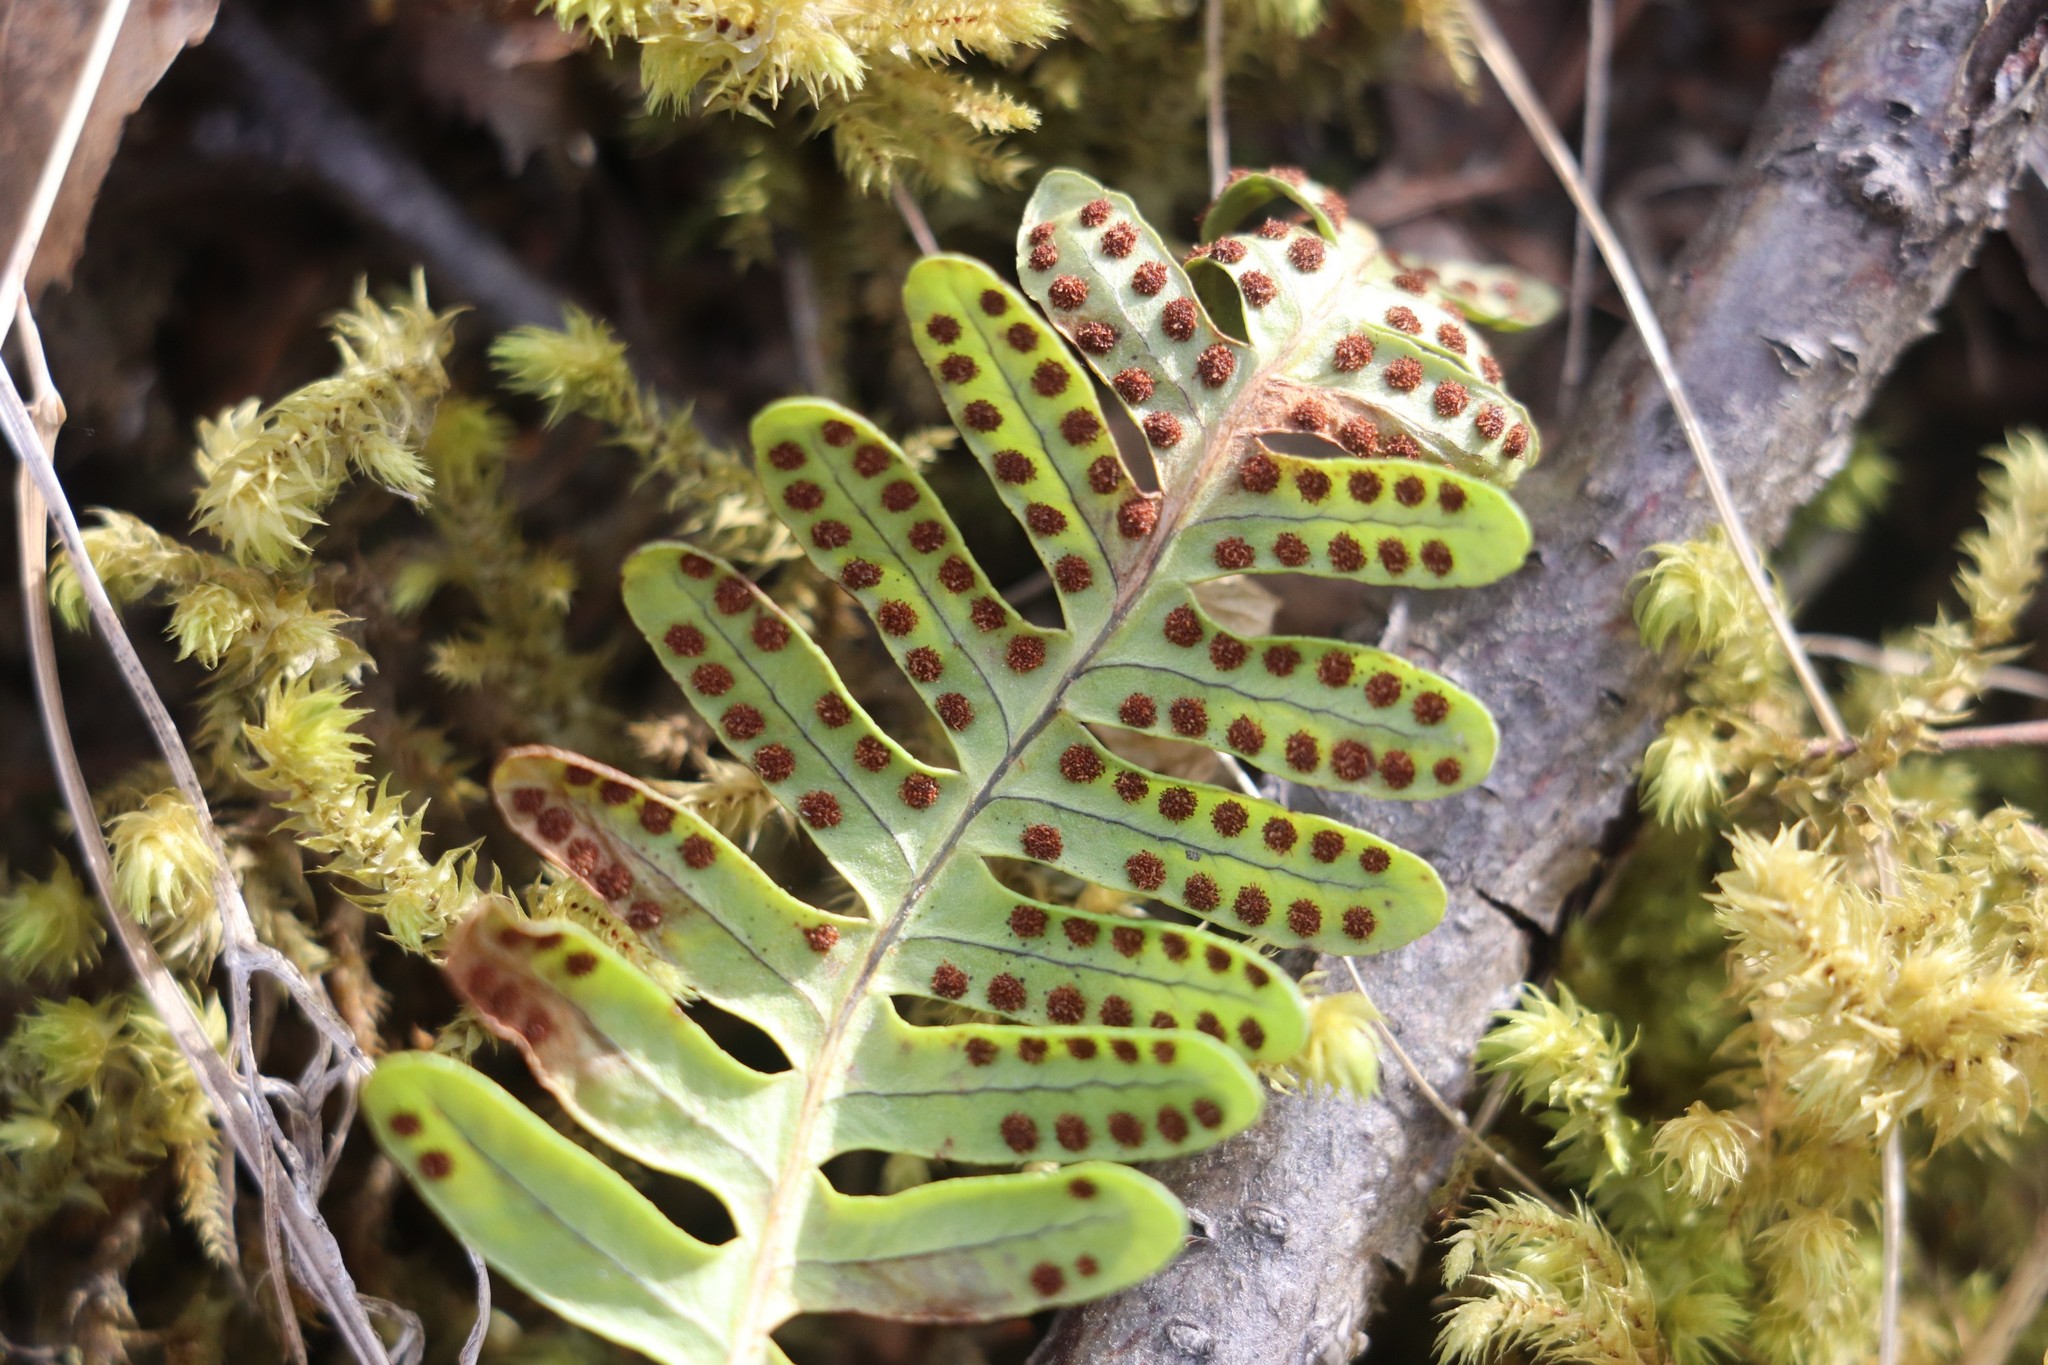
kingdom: Plantae
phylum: Tracheophyta
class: Polypodiopsida
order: Polypodiales
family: Polypodiaceae
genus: Polypodium
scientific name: Polypodium sibiricum
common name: Siberian polypody
